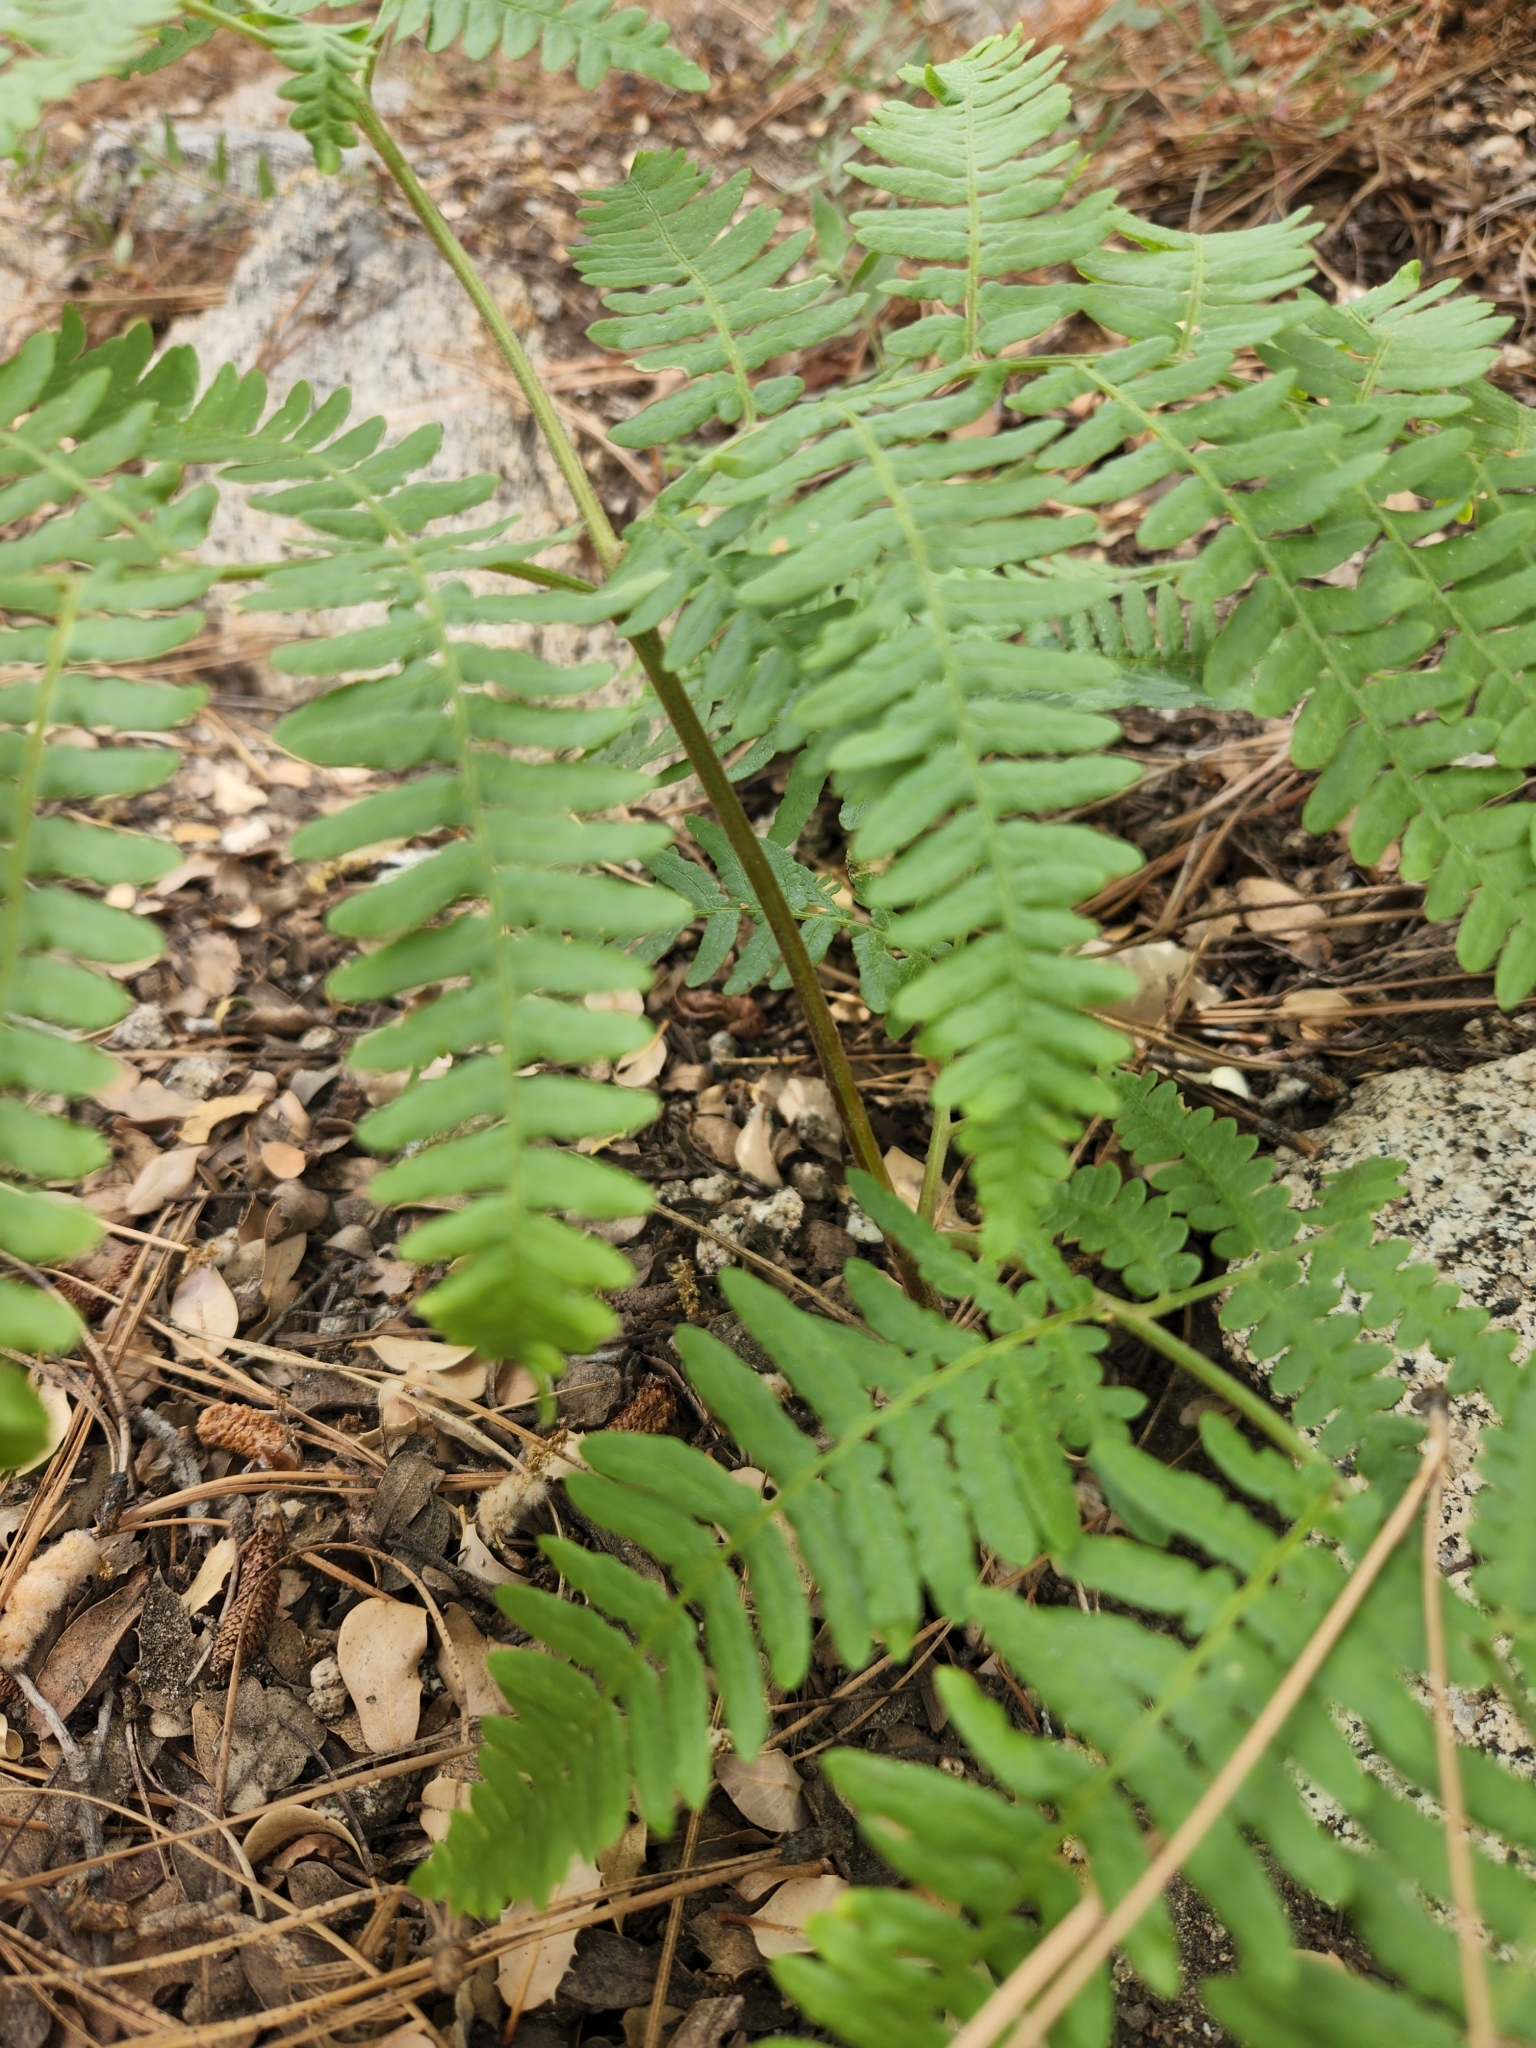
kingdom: Plantae
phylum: Tracheophyta
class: Polypodiopsida
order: Polypodiales
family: Dennstaedtiaceae
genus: Pteridium
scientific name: Pteridium aquilinum
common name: Bracken
